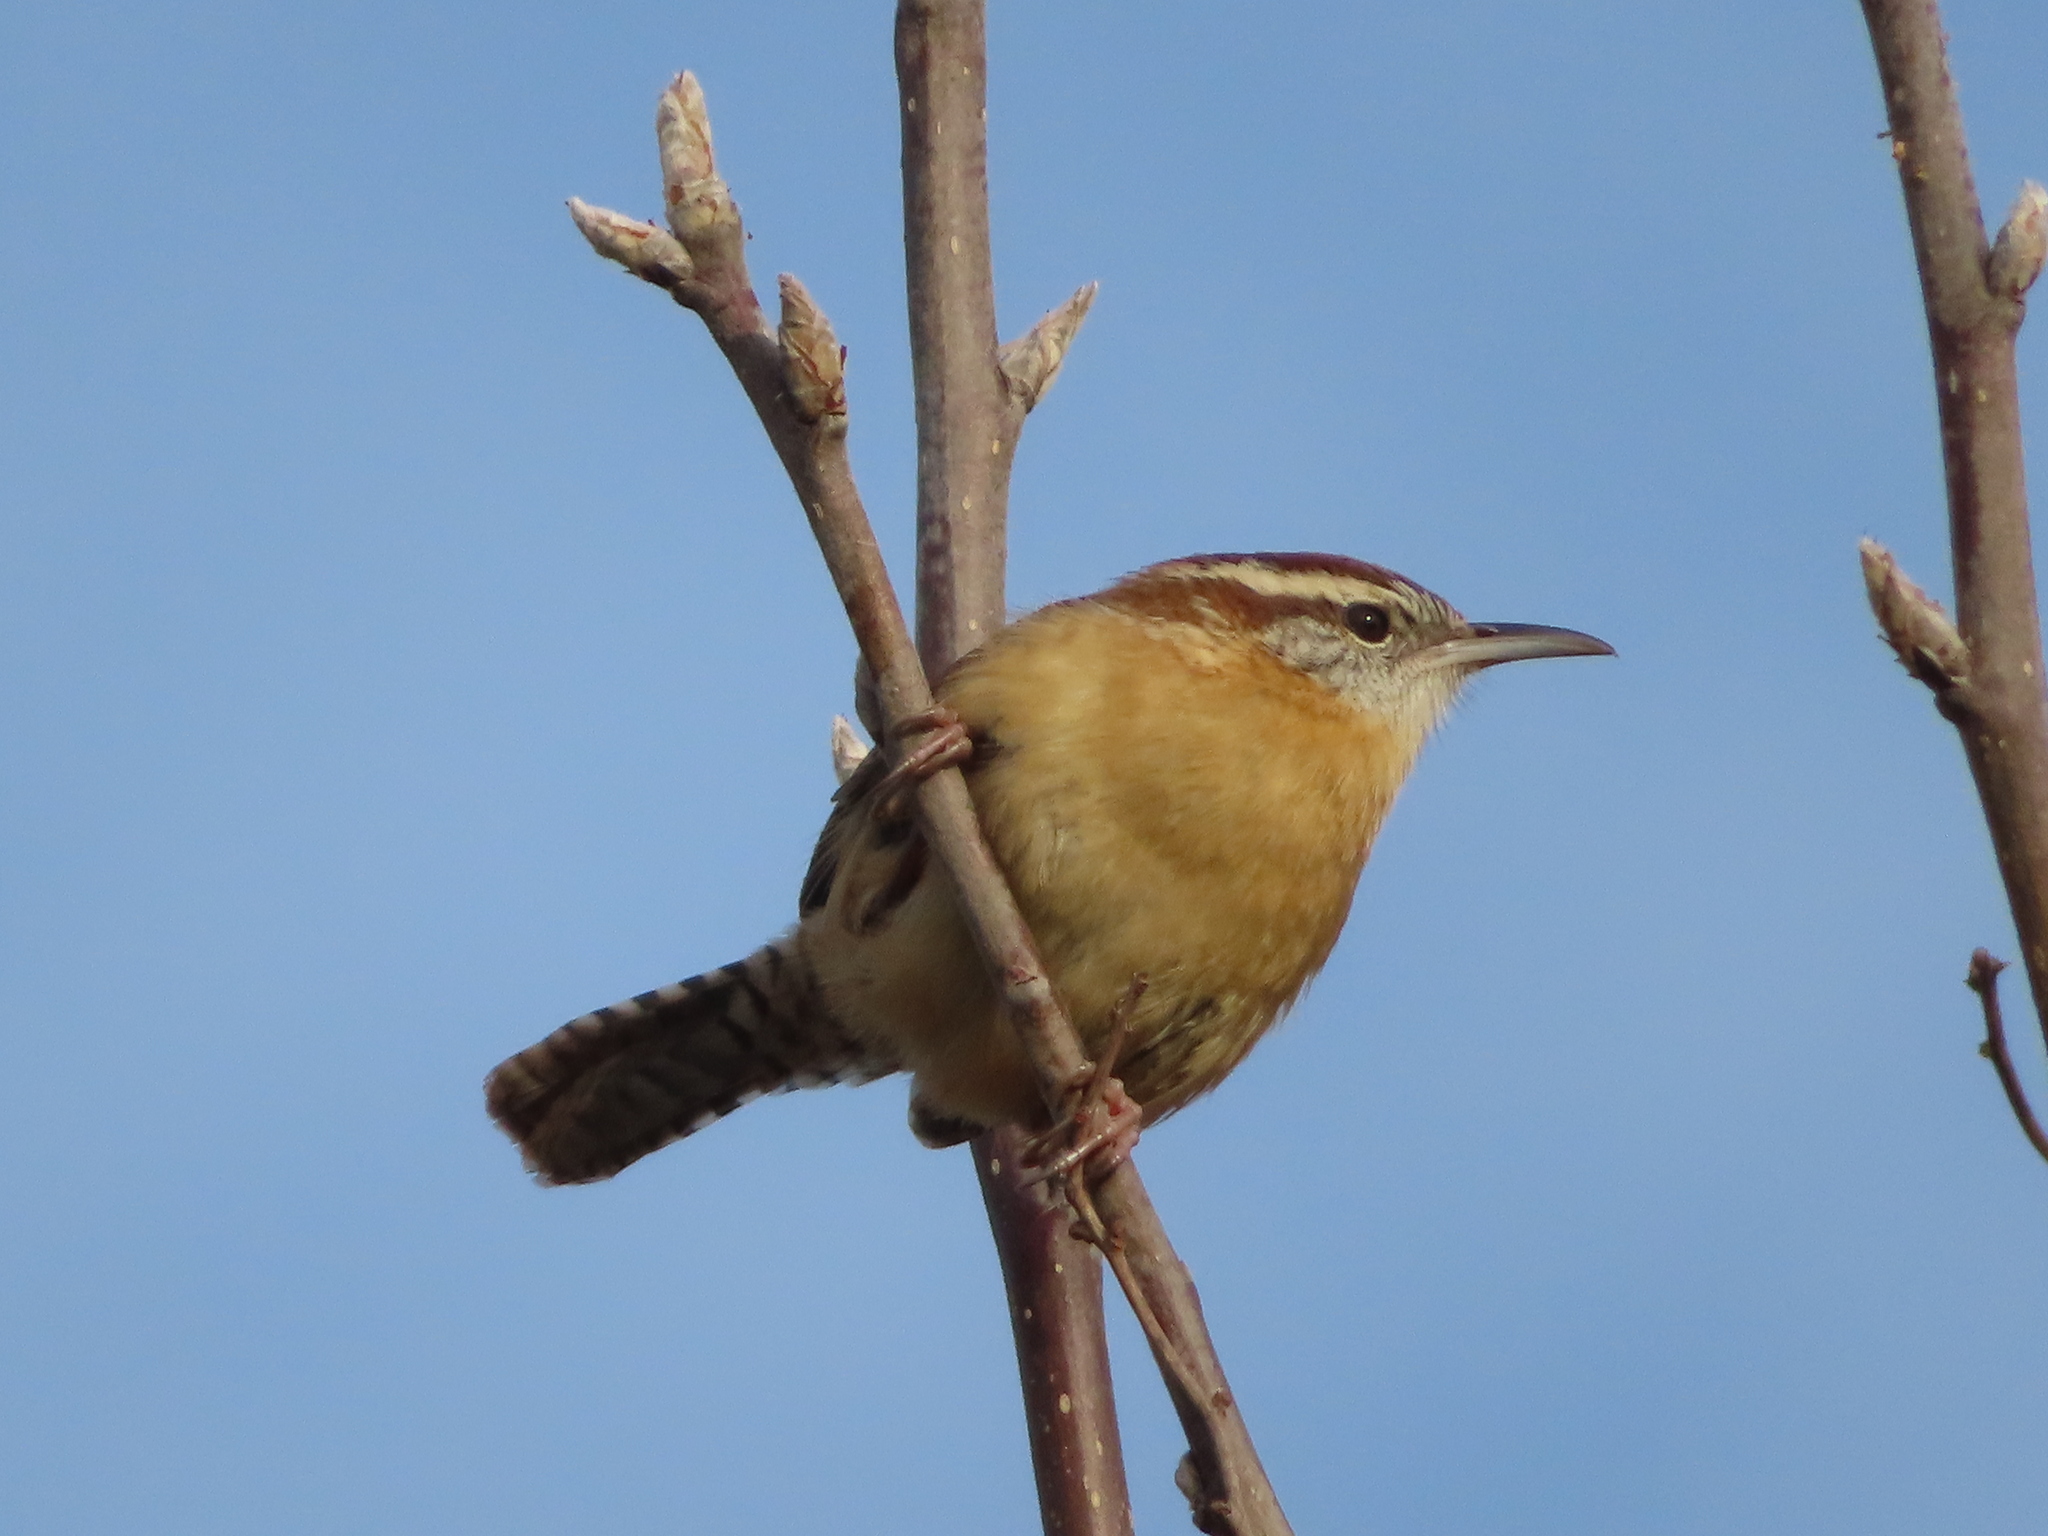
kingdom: Animalia
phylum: Chordata
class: Aves
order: Passeriformes
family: Troglodytidae
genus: Thryothorus
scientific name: Thryothorus ludovicianus
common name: Carolina wren
